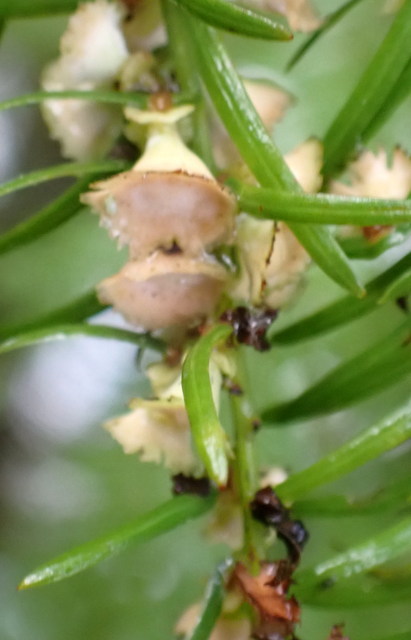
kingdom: Animalia
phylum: Arthropoda
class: Insecta
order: Diptera
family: Cecidomyiidae
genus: Taxodiomyia
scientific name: Taxodiomyia cupressi
